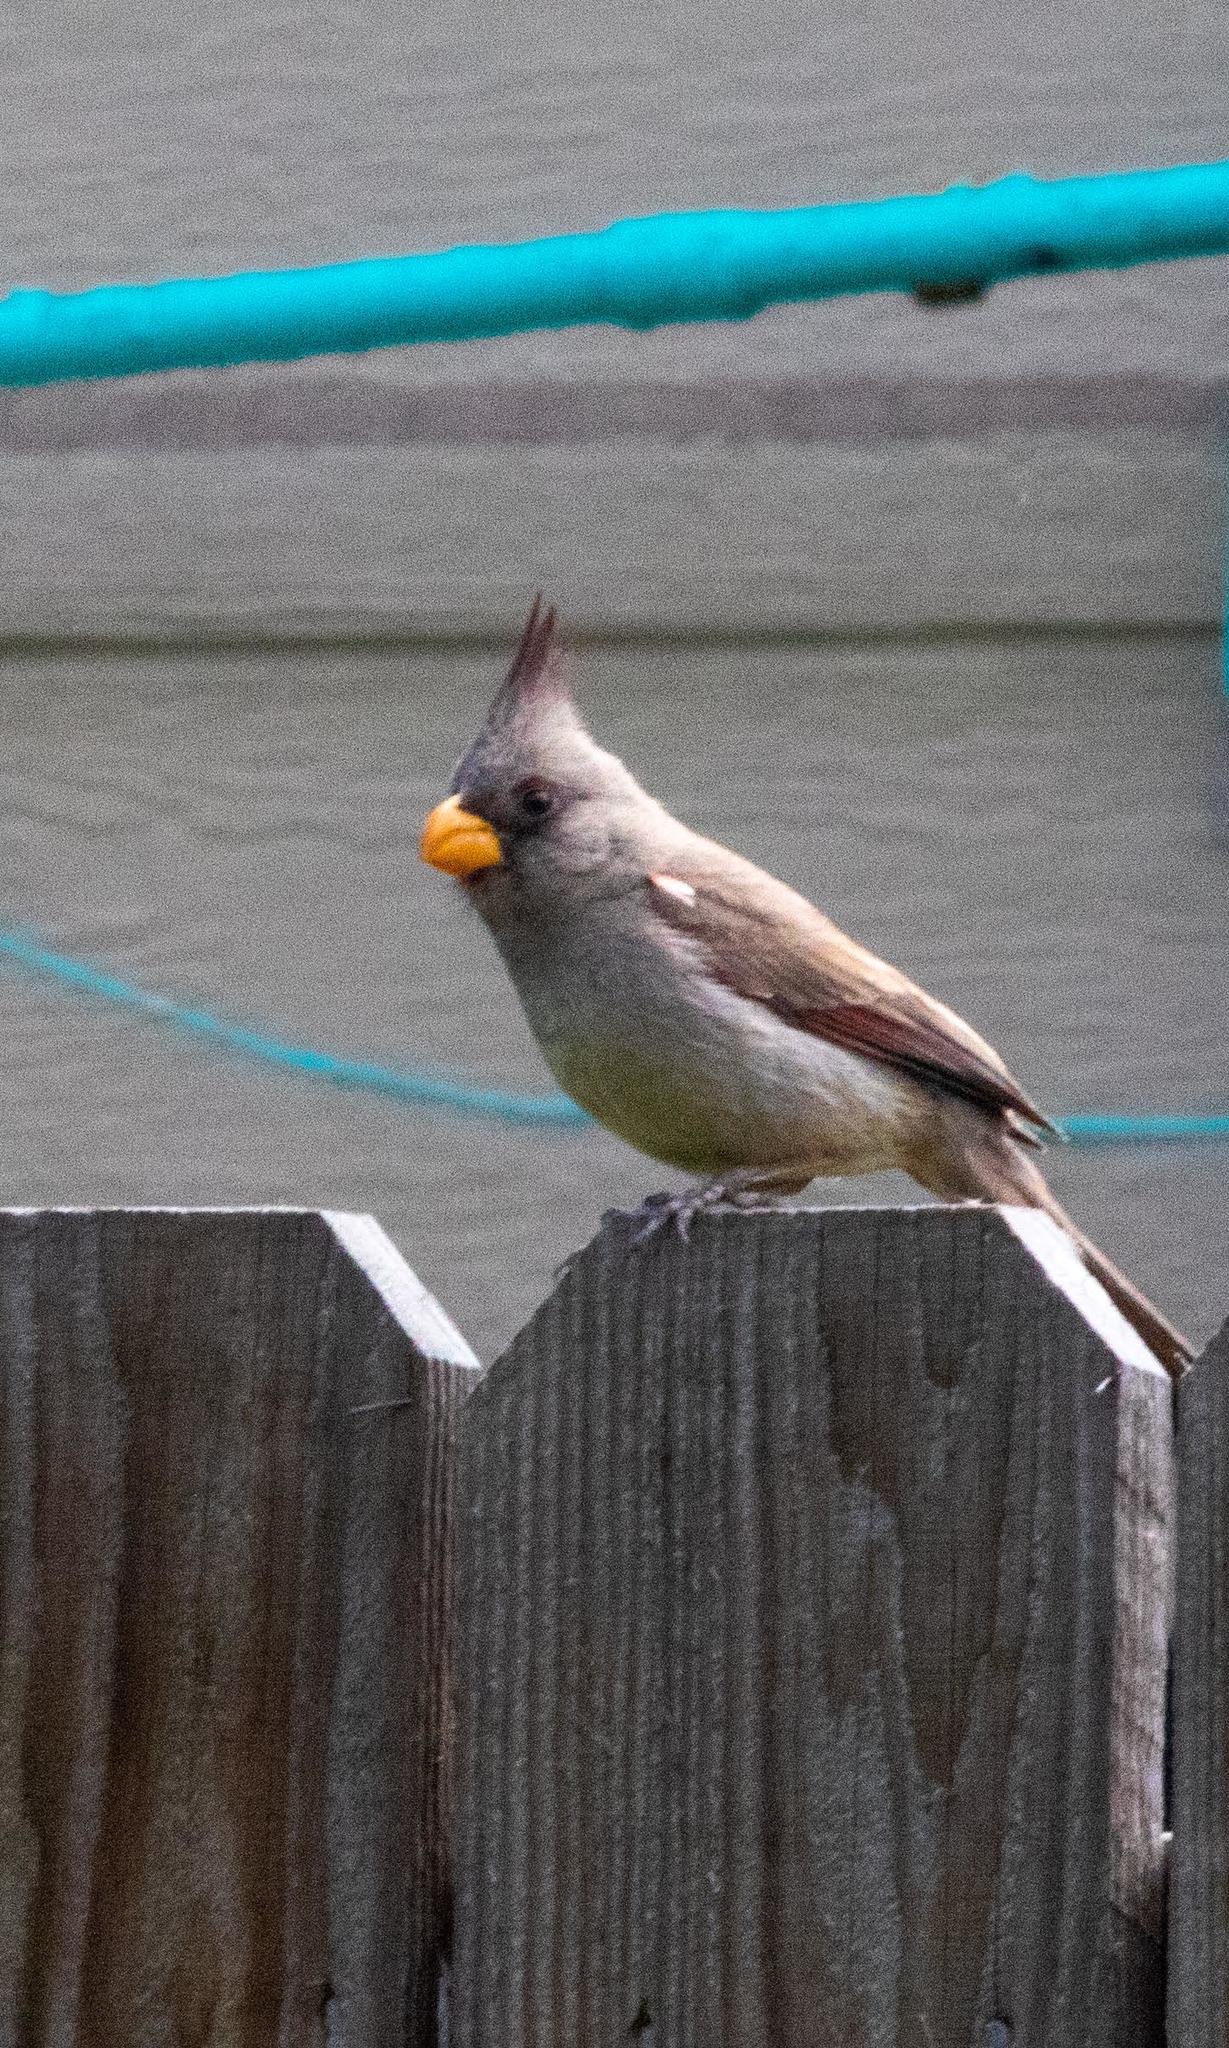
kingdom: Animalia
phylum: Chordata
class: Aves
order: Passeriformes
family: Cardinalidae
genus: Cardinalis
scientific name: Cardinalis sinuatus
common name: Pyrrhuloxia
